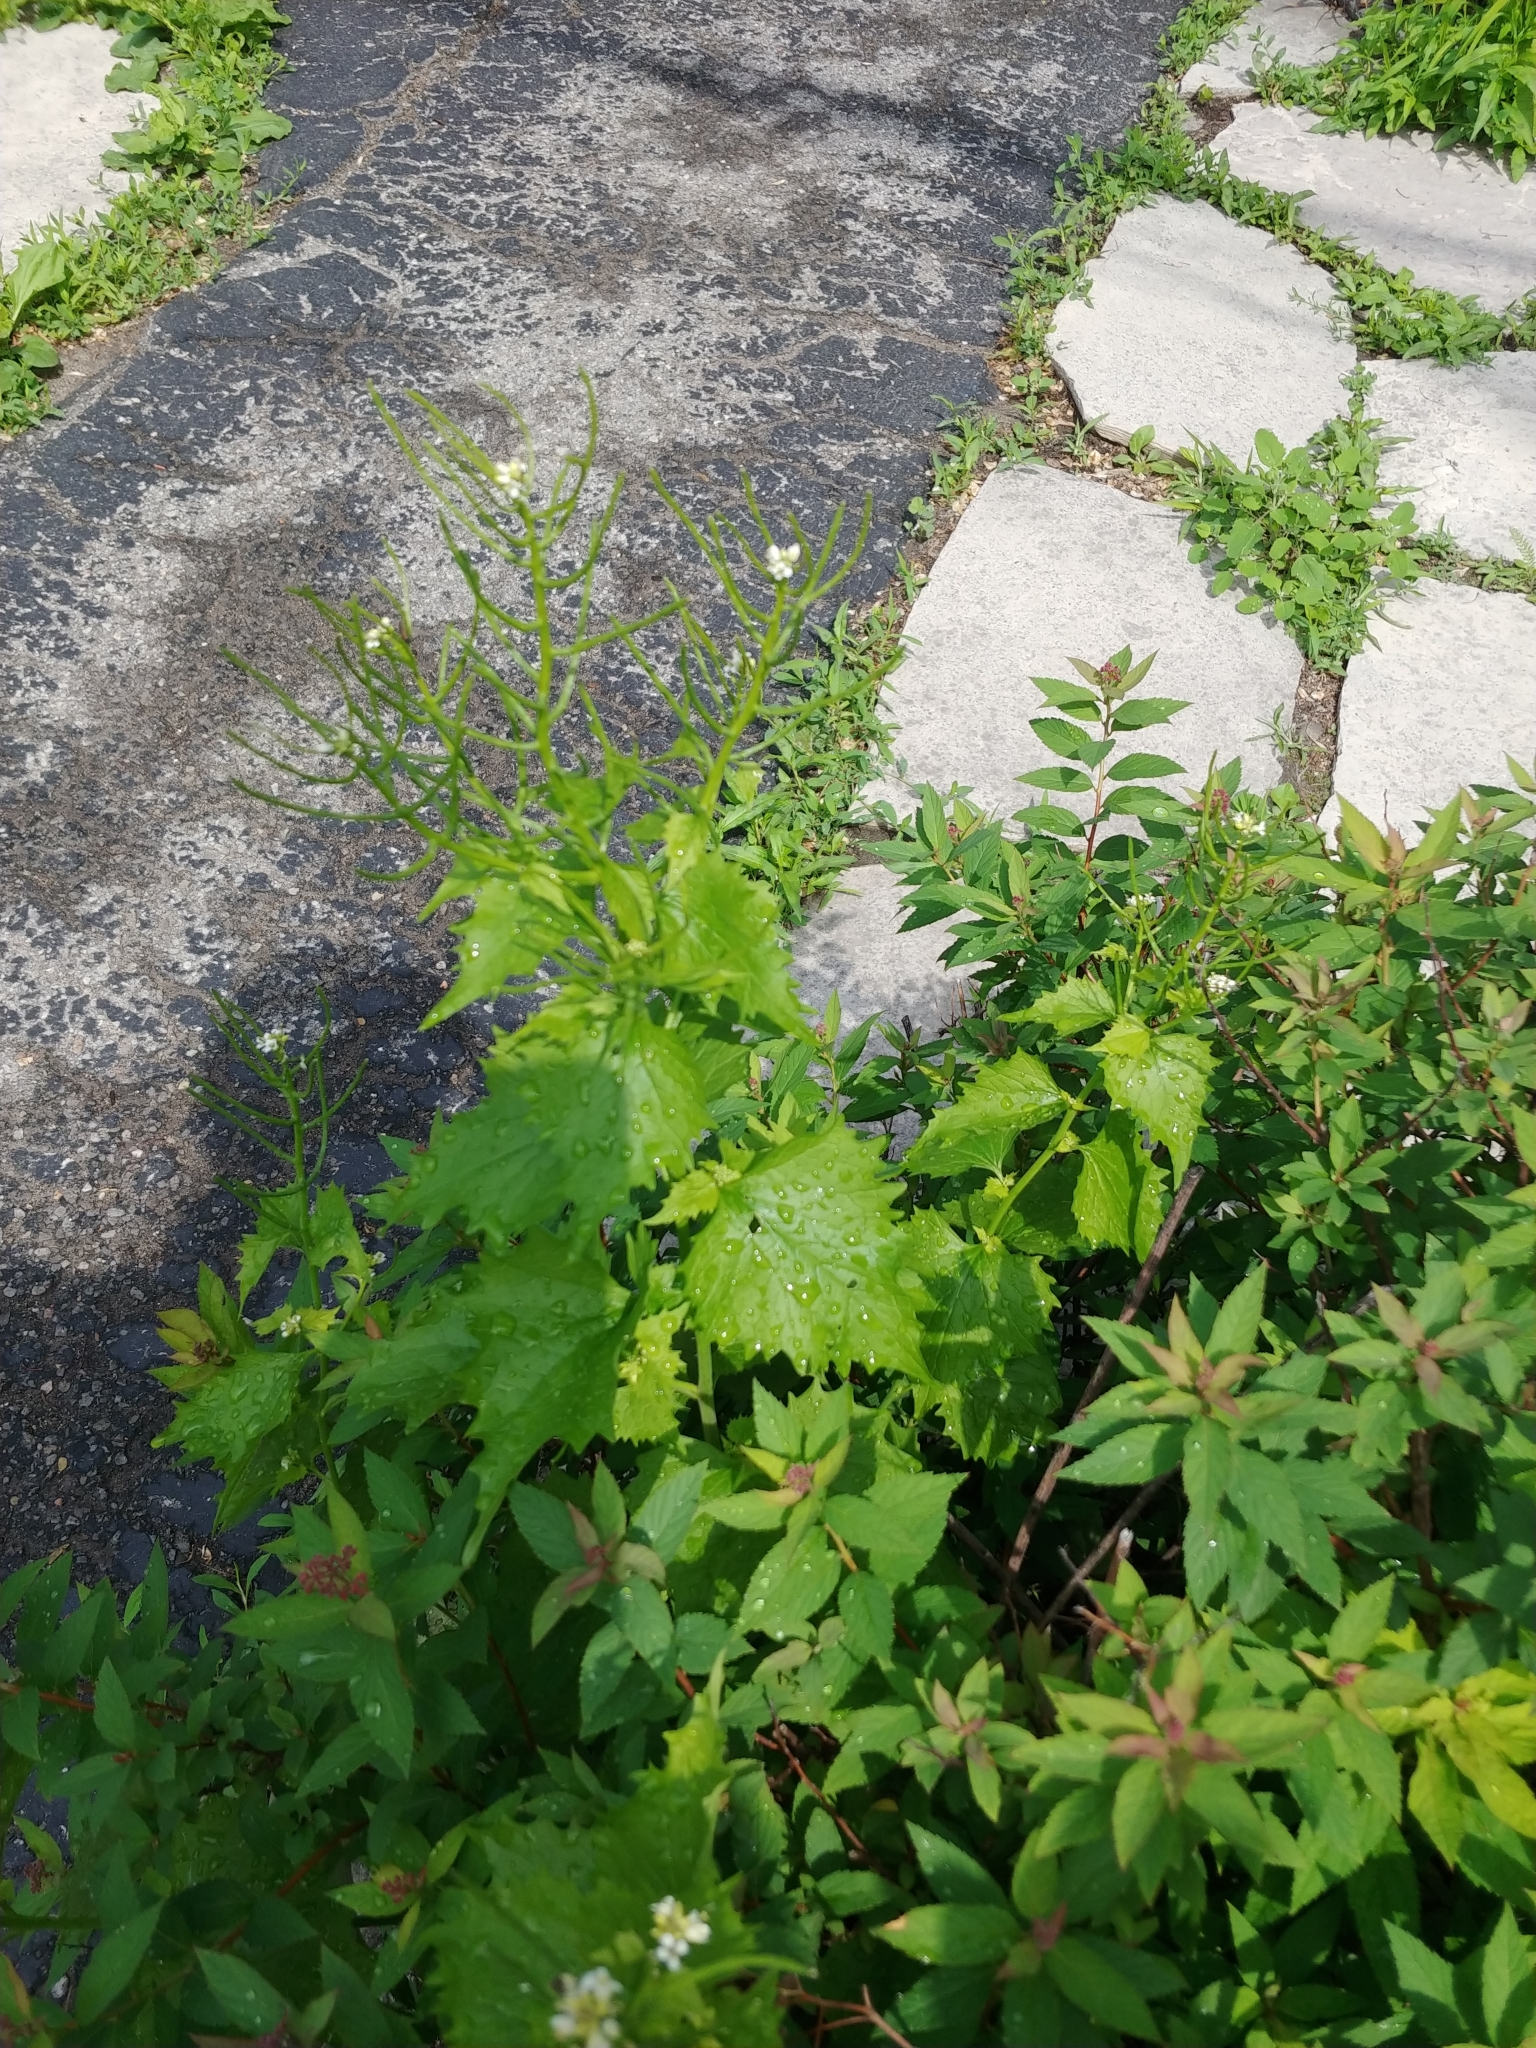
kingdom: Plantae
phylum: Tracheophyta
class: Magnoliopsida
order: Brassicales
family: Brassicaceae
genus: Alliaria
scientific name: Alliaria petiolata
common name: Garlic mustard
